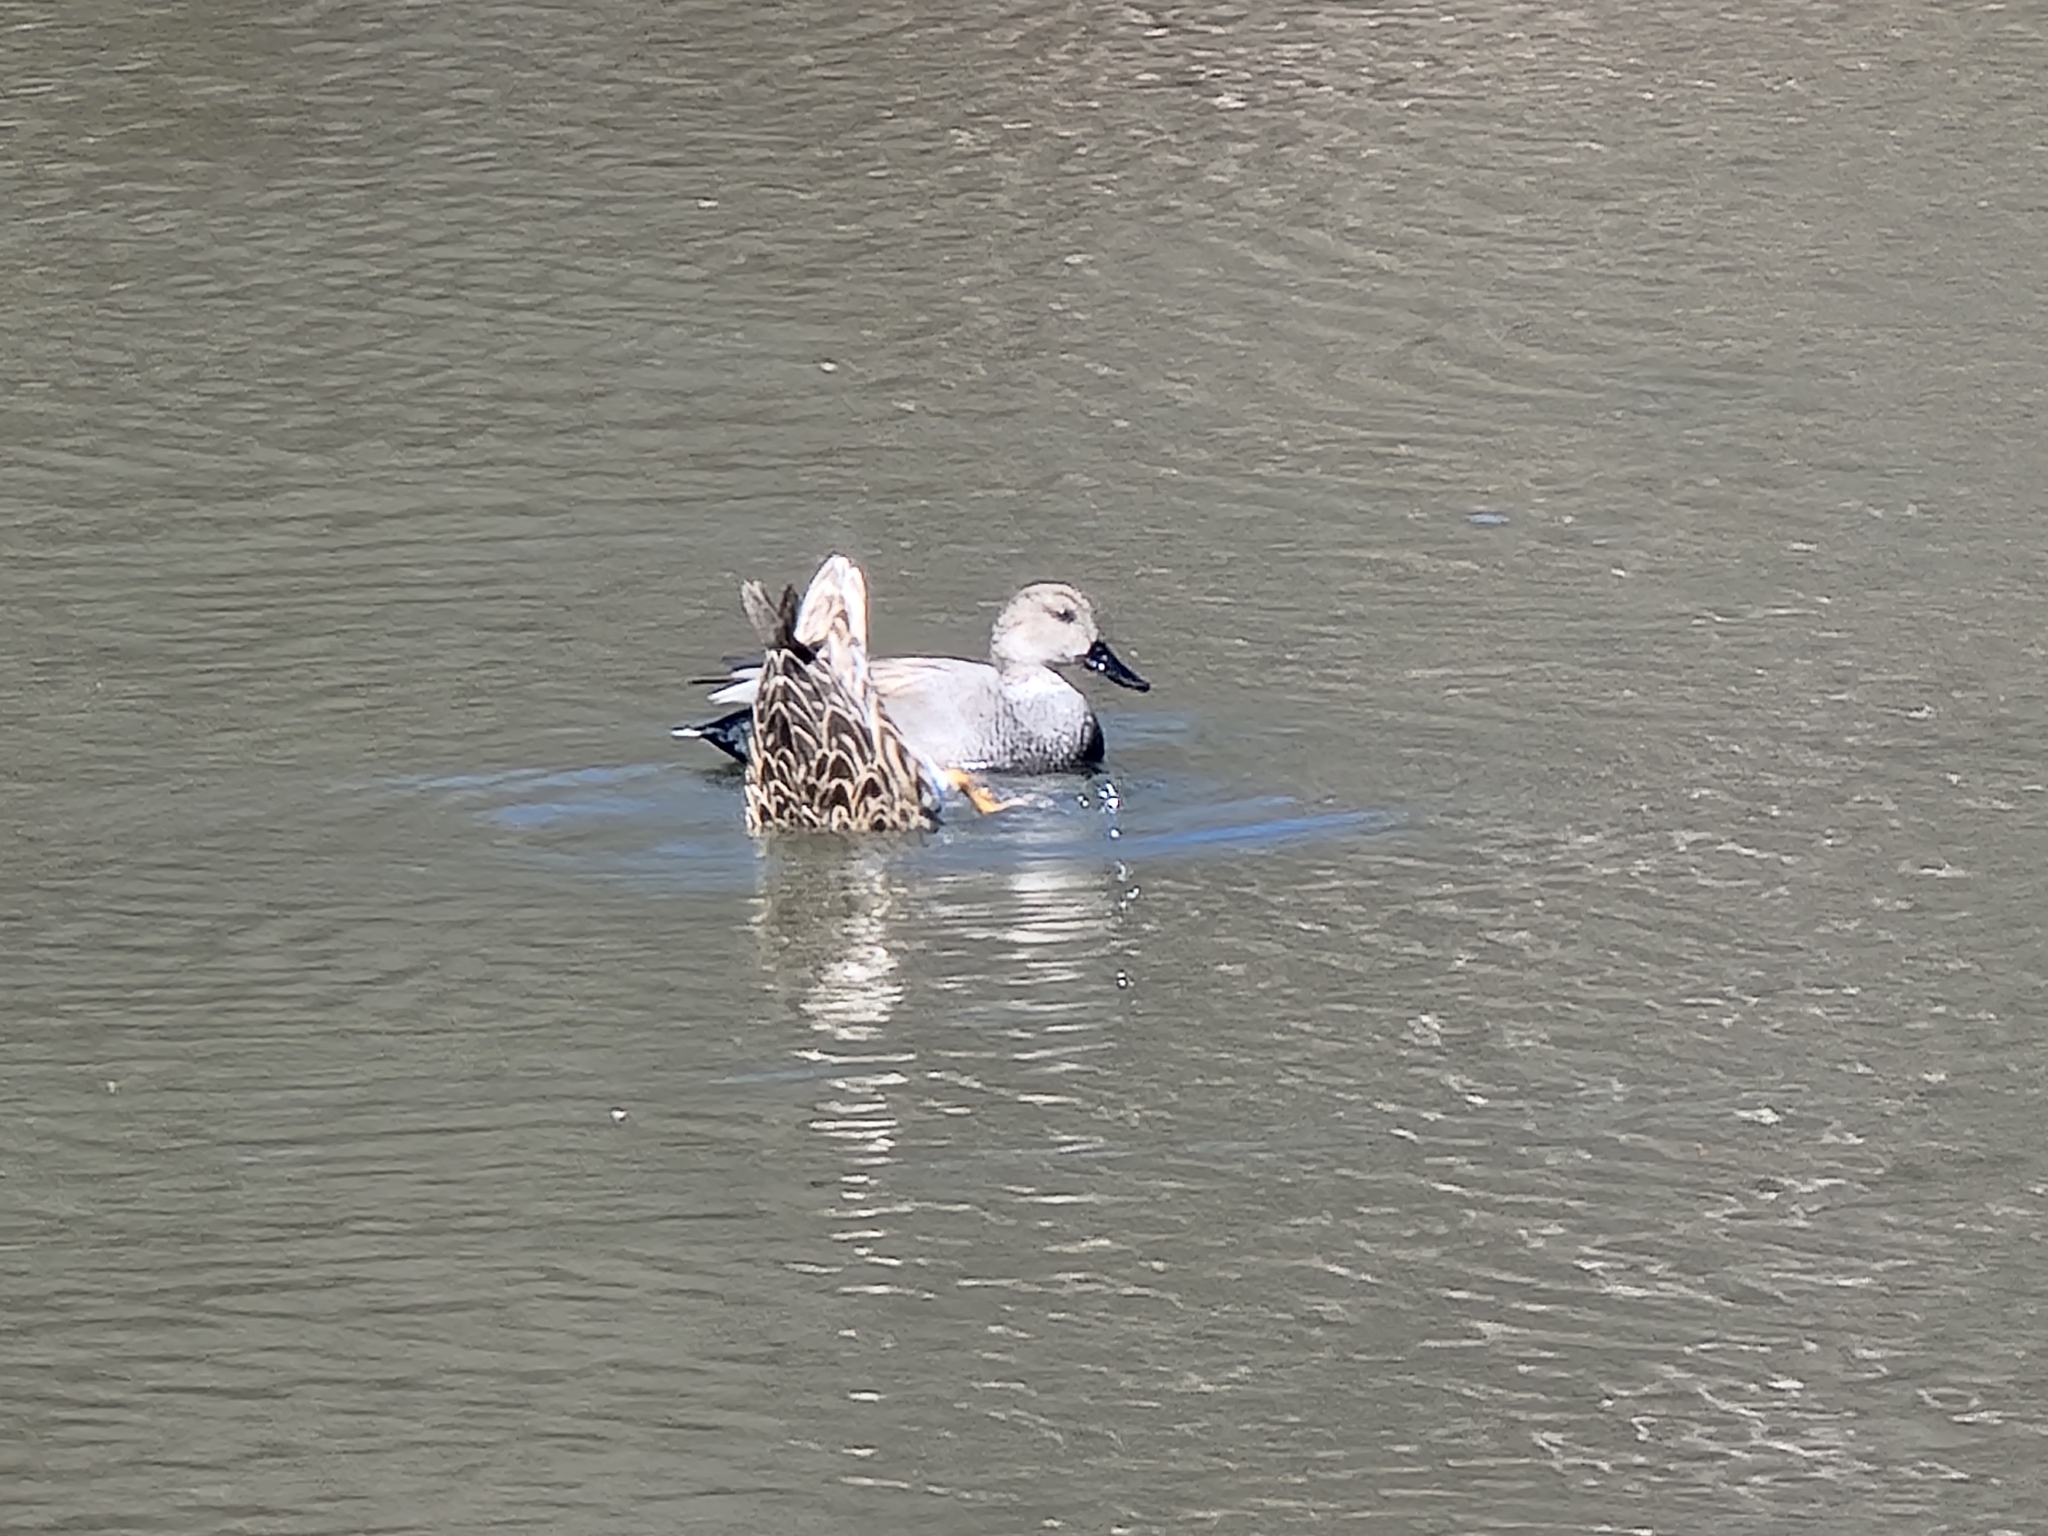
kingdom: Animalia
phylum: Chordata
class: Aves
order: Anseriformes
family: Anatidae
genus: Mareca
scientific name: Mareca strepera
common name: Gadwall
